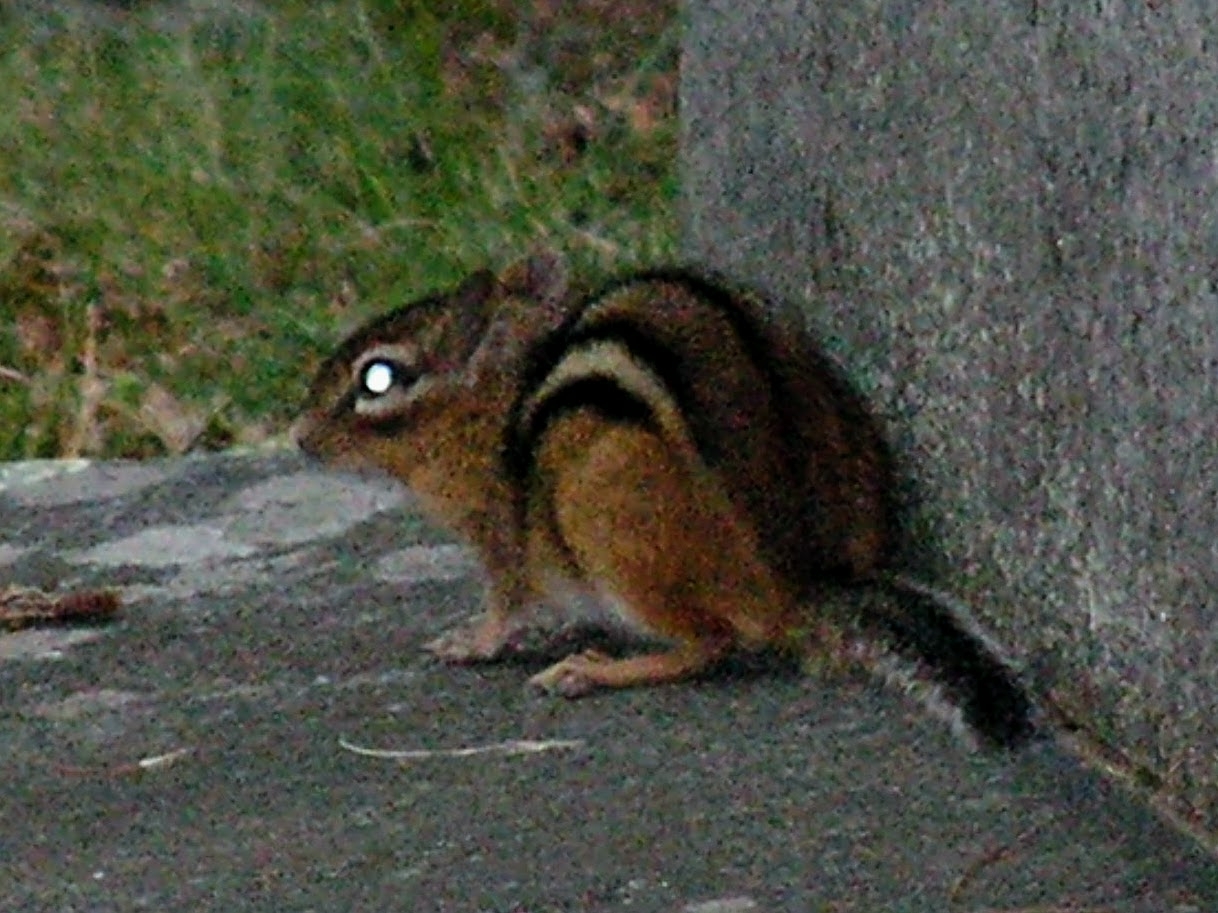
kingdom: Animalia
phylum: Chordata
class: Mammalia
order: Rodentia
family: Sciuridae
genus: Tamias
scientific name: Tamias striatus
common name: Eastern chipmunk
